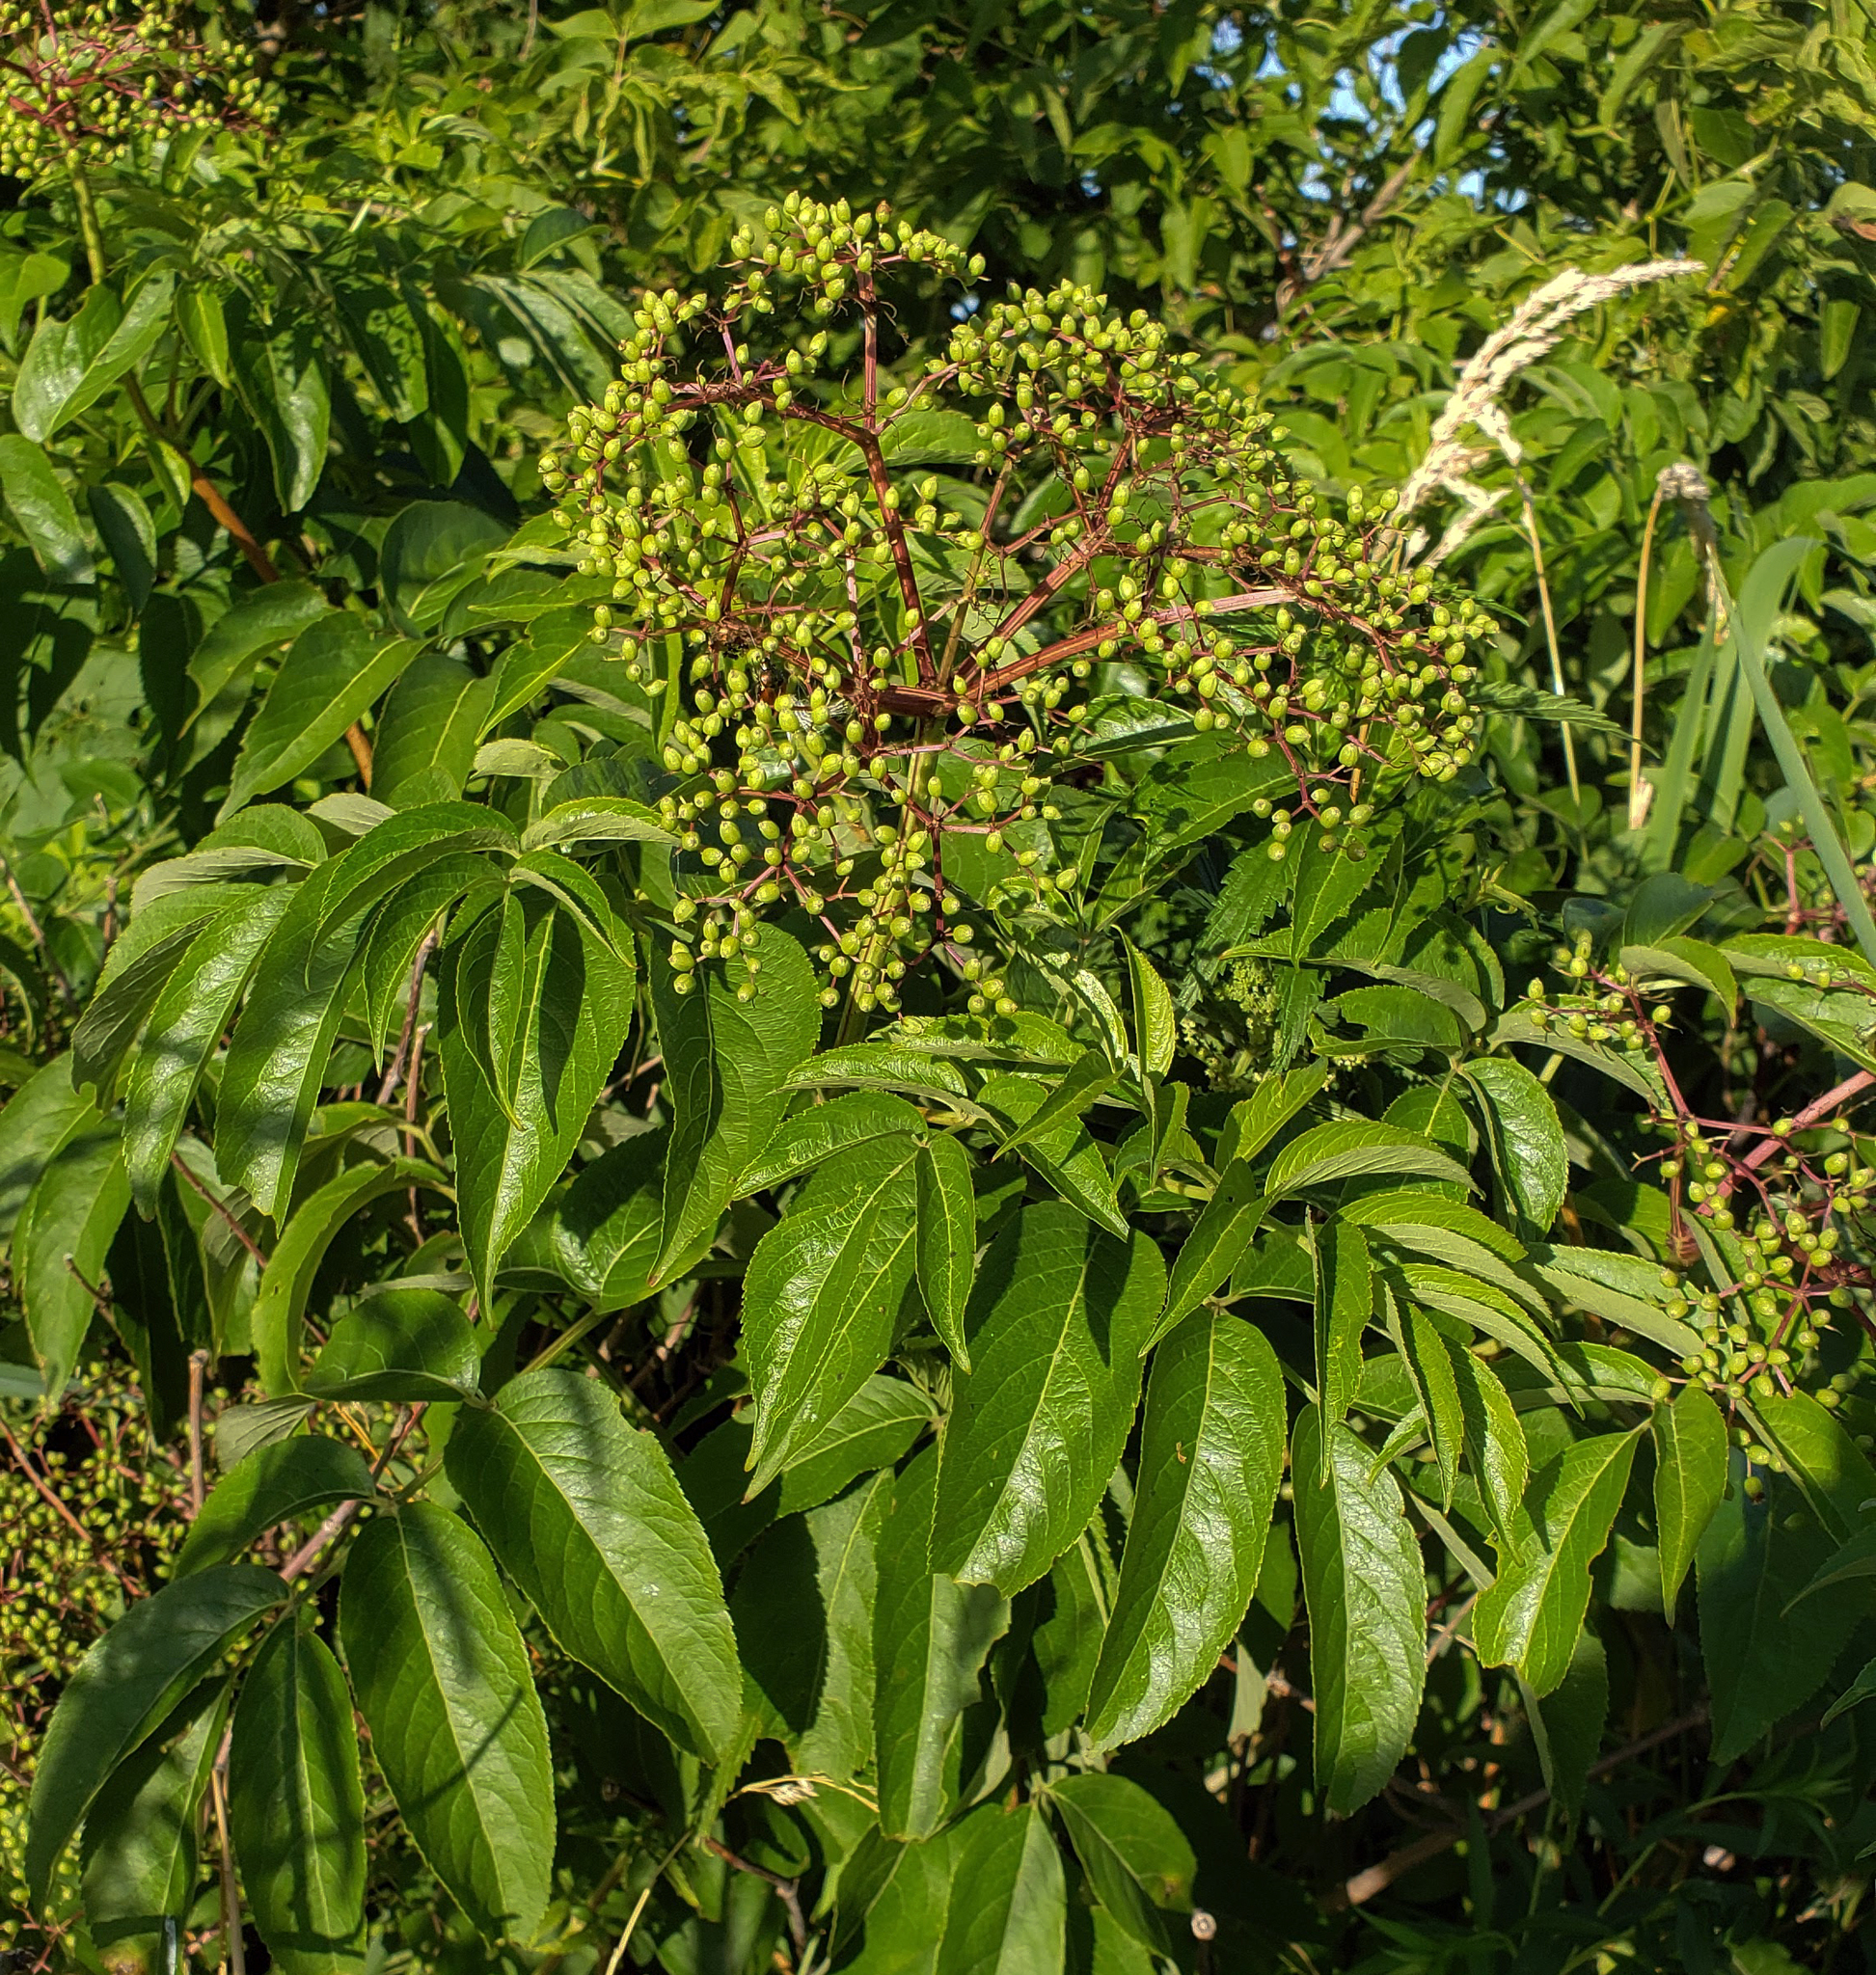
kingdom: Plantae
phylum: Tracheophyta
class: Magnoliopsida
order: Dipsacales
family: Viburnaceae
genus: Sambucus
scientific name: Sambucus canadensis
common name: American elder
